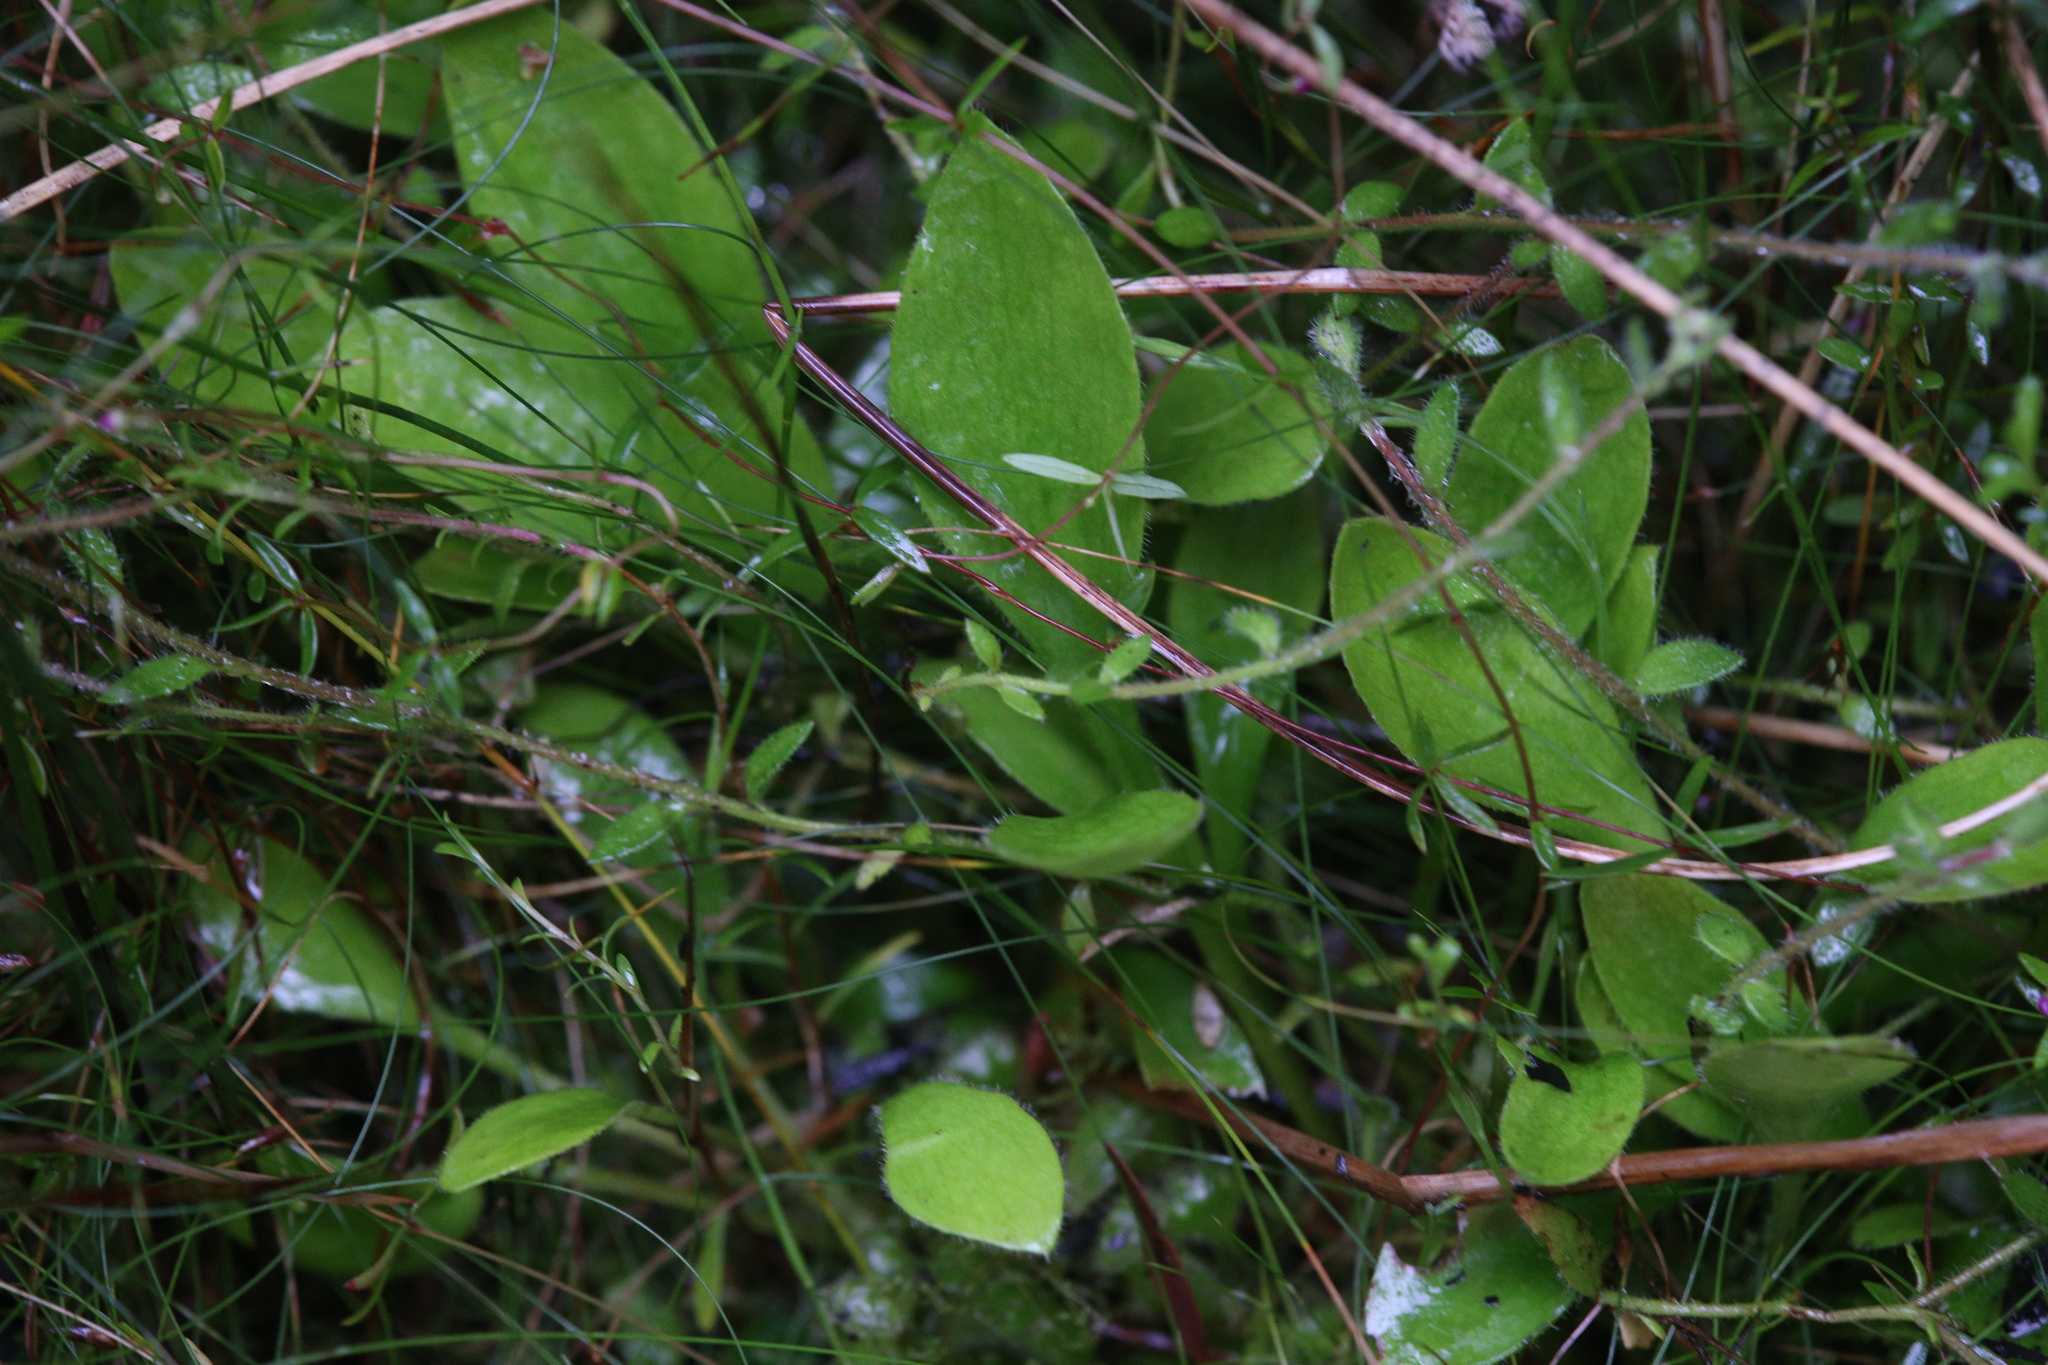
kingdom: Plantae
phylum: Tracheophyta
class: Magnoliopsida
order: Oxalidales
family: Cephalotaceae
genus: Cephalotus
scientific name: Cephalotus follicularis
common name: Australian pitcher plant
